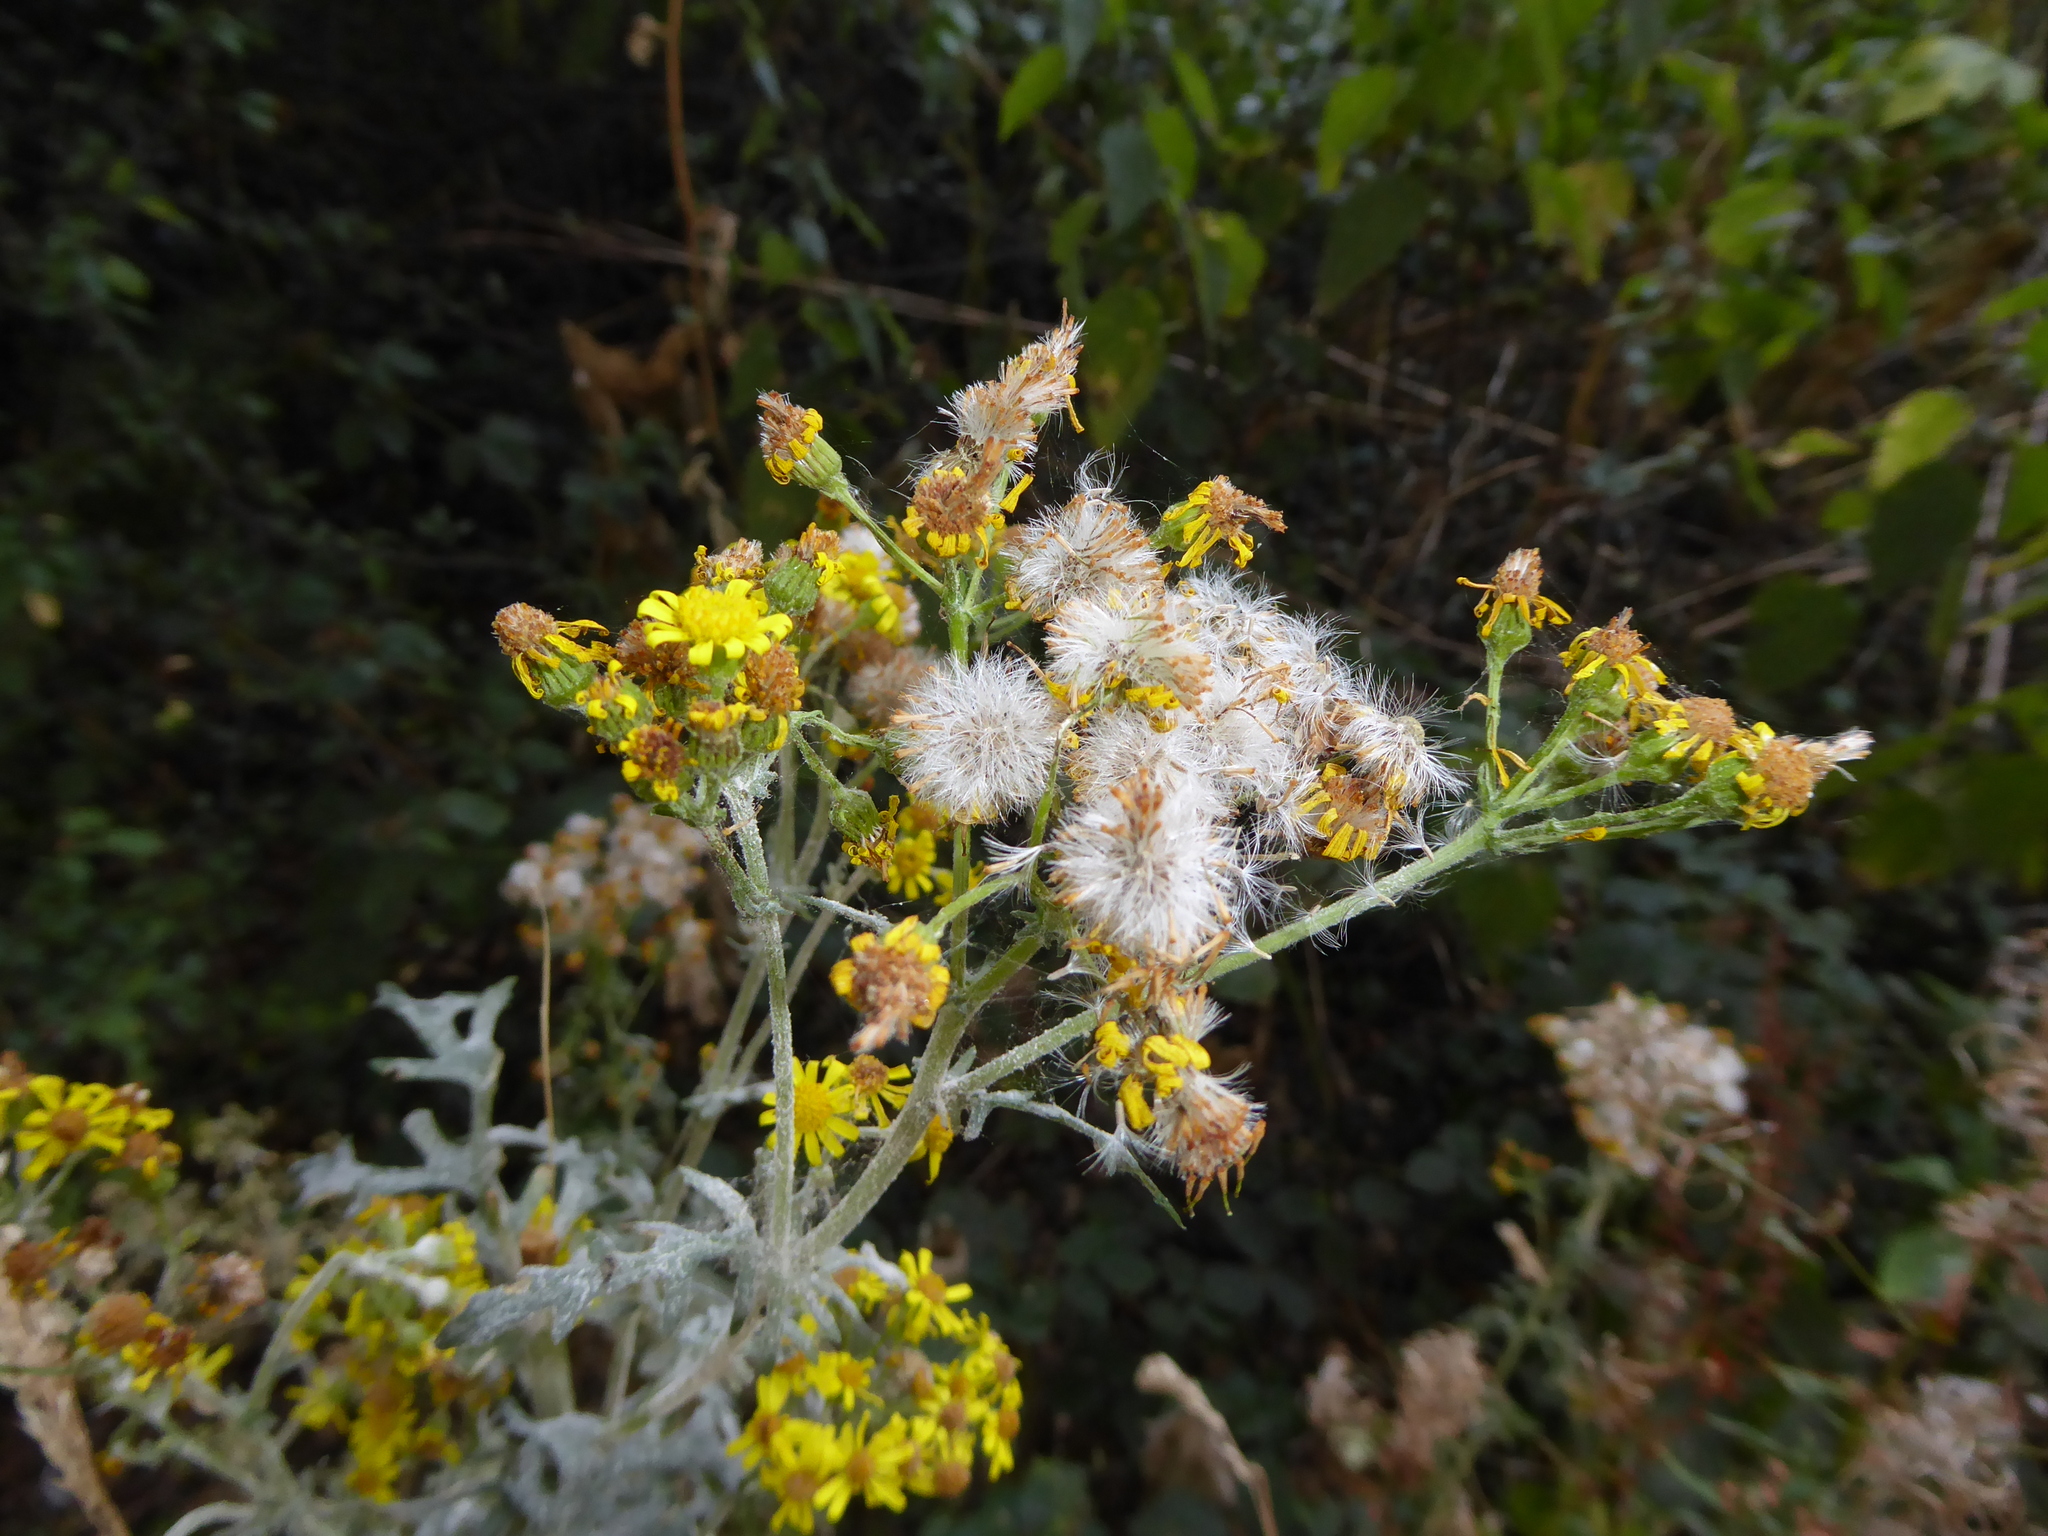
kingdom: Fungi
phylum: Ascomycota
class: Leotiomycetes
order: Helotiales
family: Erysiphaceae
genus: Podosphaera
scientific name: Podosphaera senecionis
